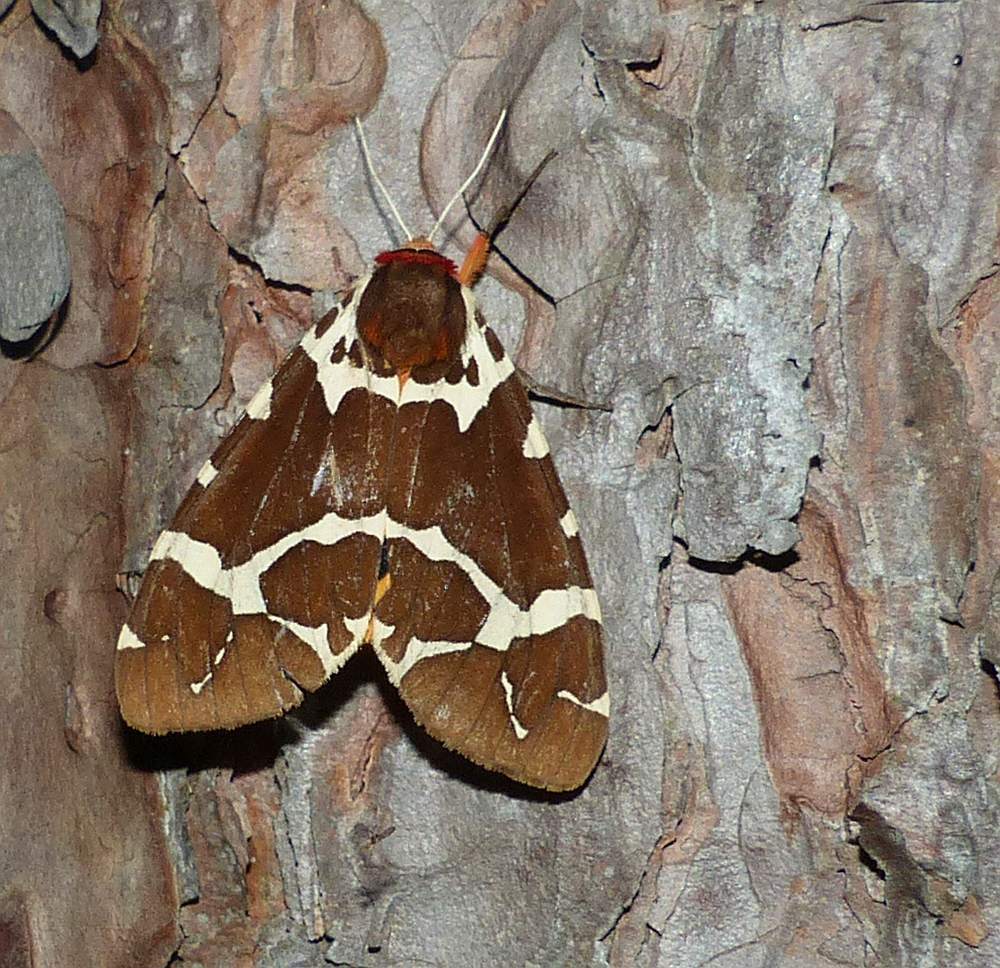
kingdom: Animalia
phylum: Arthropoda
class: Insecta
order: Lepidoptera
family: Erebidae
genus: Arctia
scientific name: Arctia caja
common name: Garden tiger
